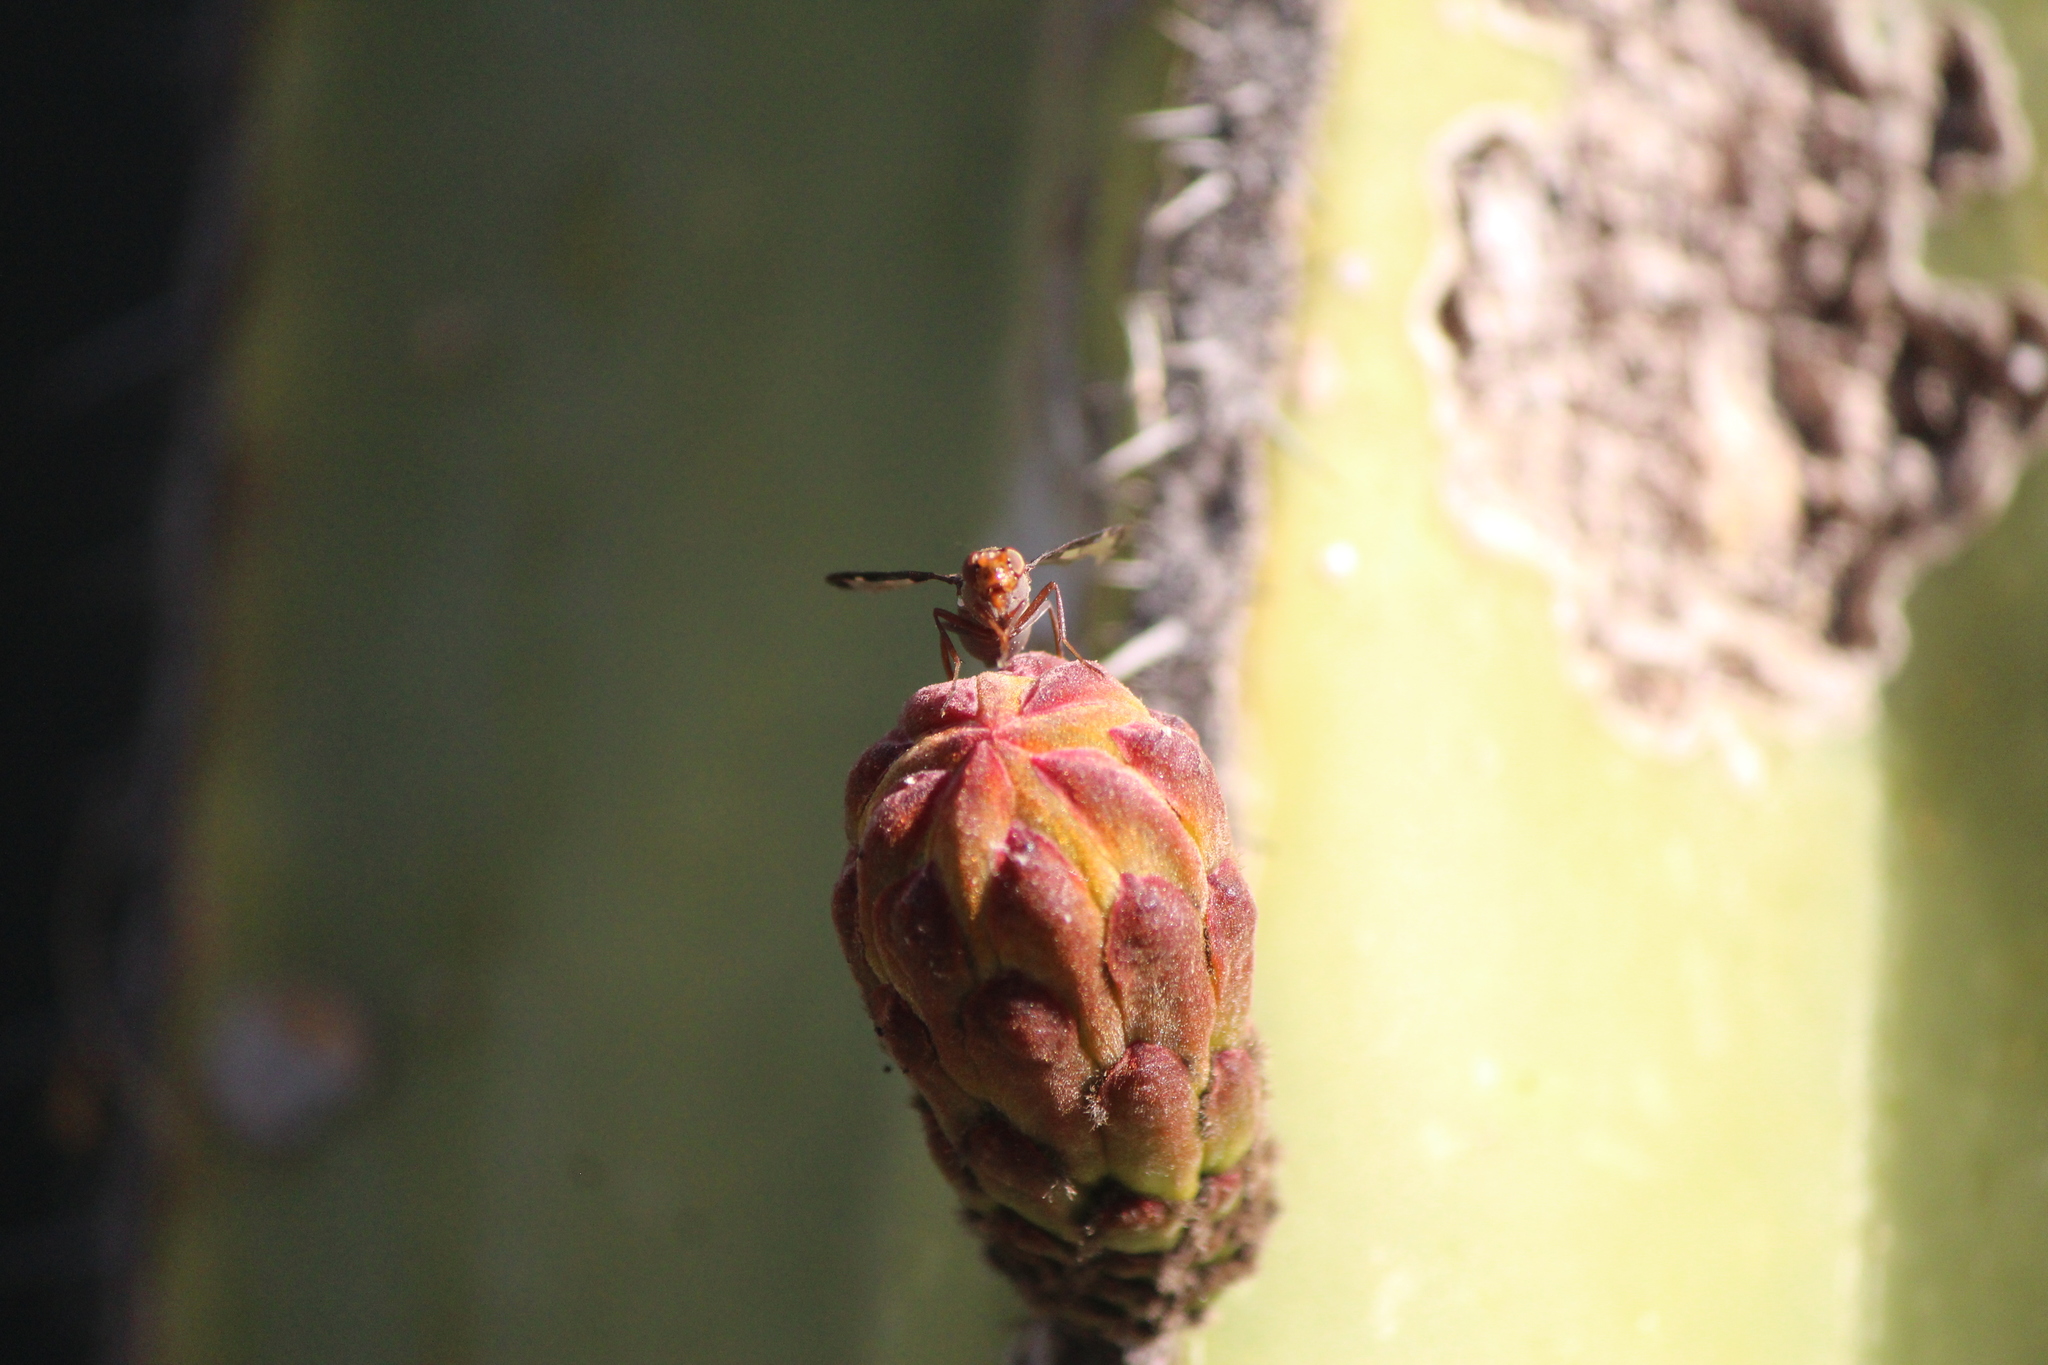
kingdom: Animalia
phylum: Arthropoda
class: Insecta
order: Diptera
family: Ulidiidae
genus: Diacrita
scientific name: Diacrita costalis
